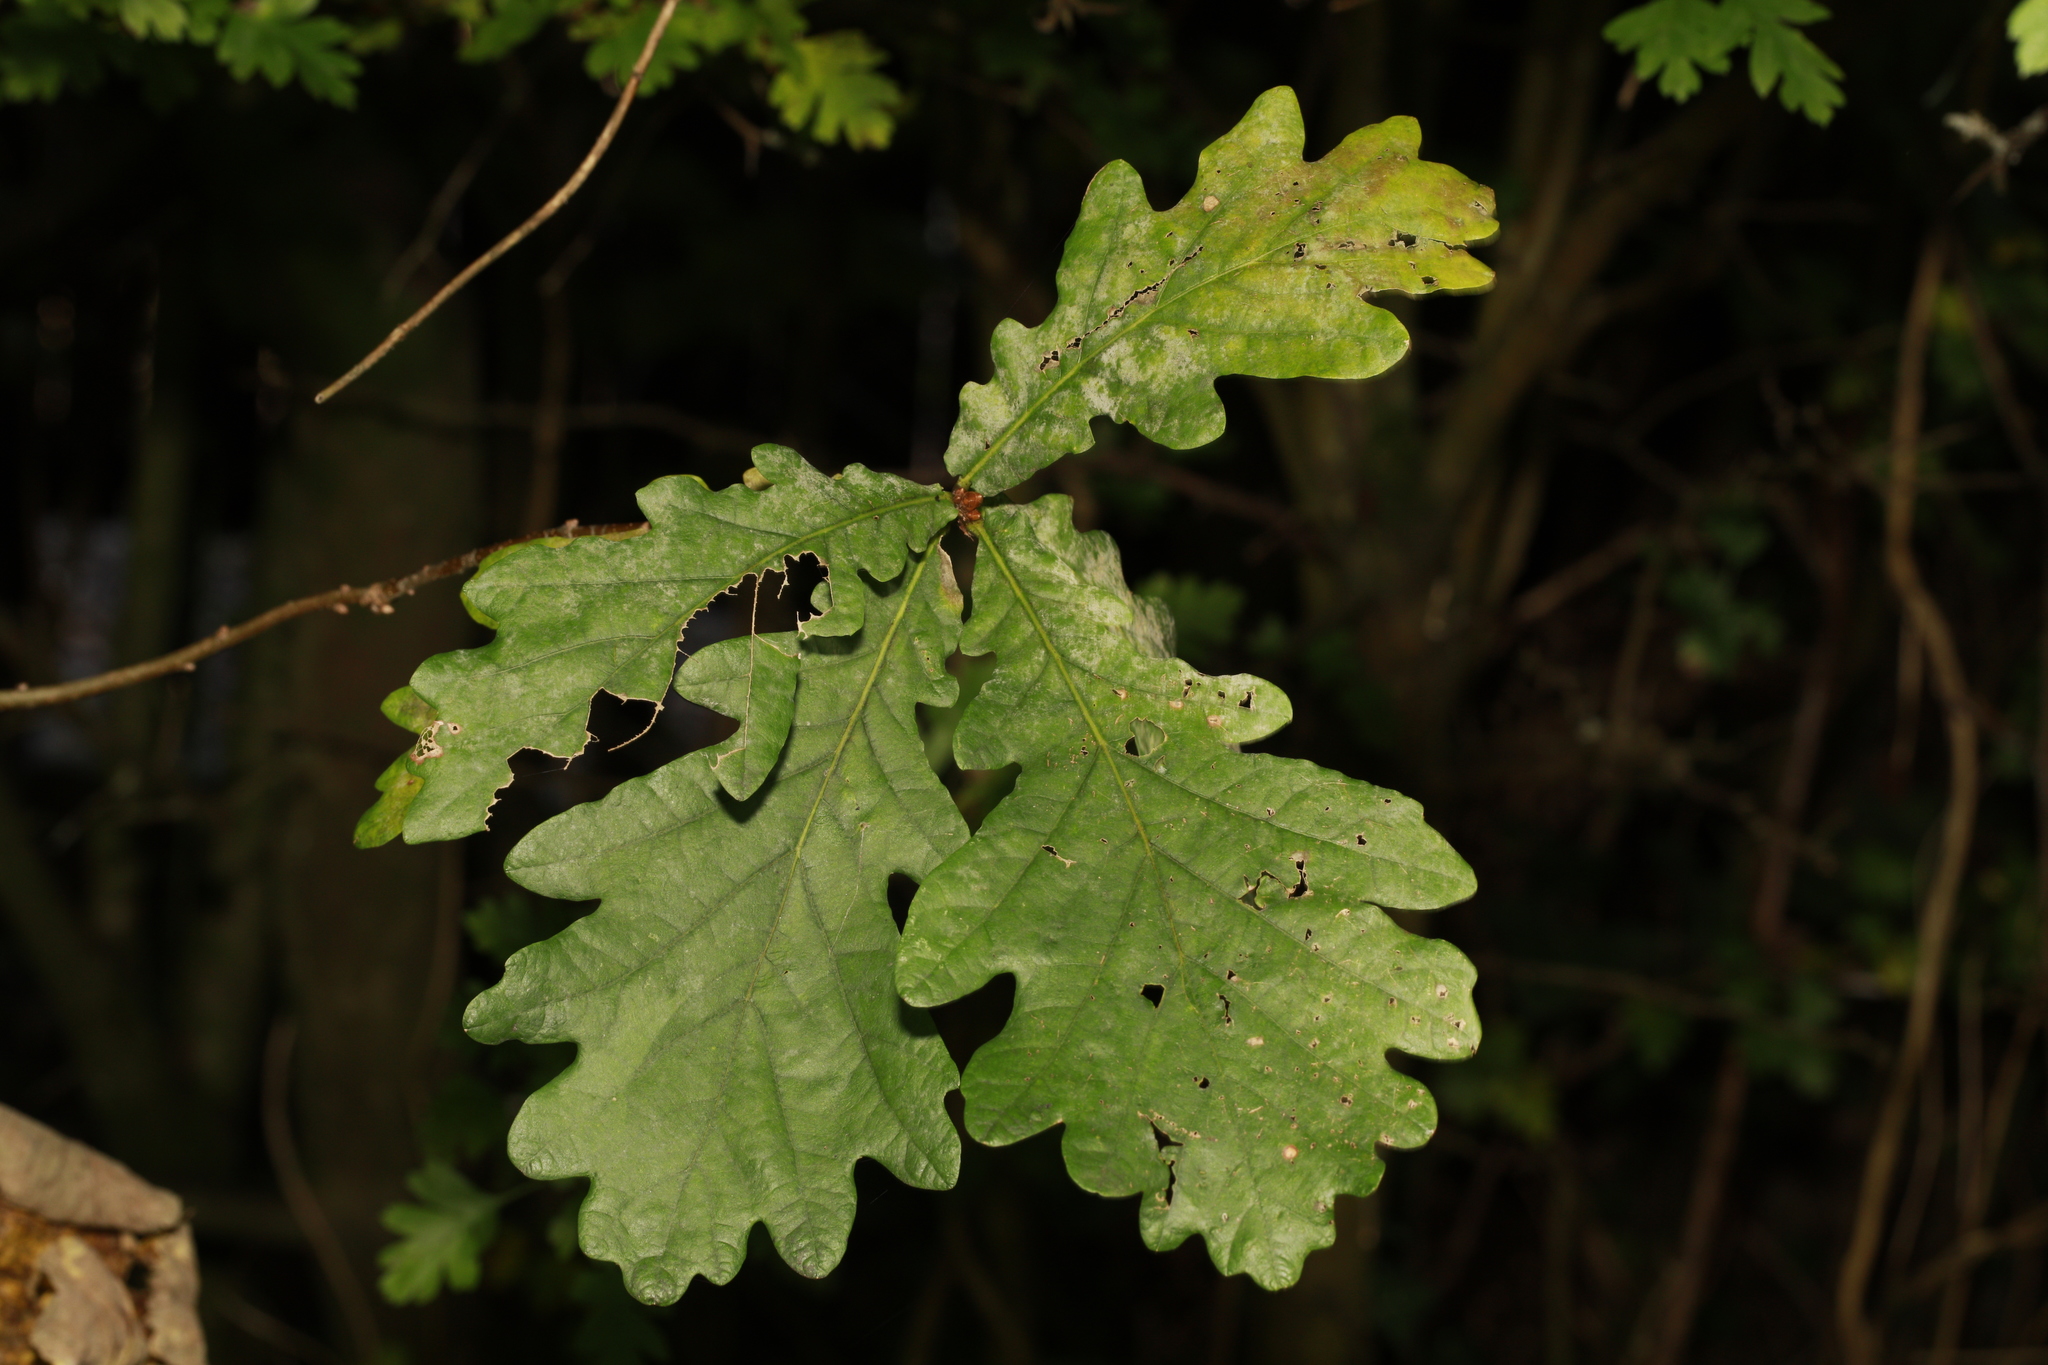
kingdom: Plantae
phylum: Tracheophyta
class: Magnoliopsida
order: Fagales
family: Fagaceae
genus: Quercus
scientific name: Quercus robur
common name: Pedunculate oak
